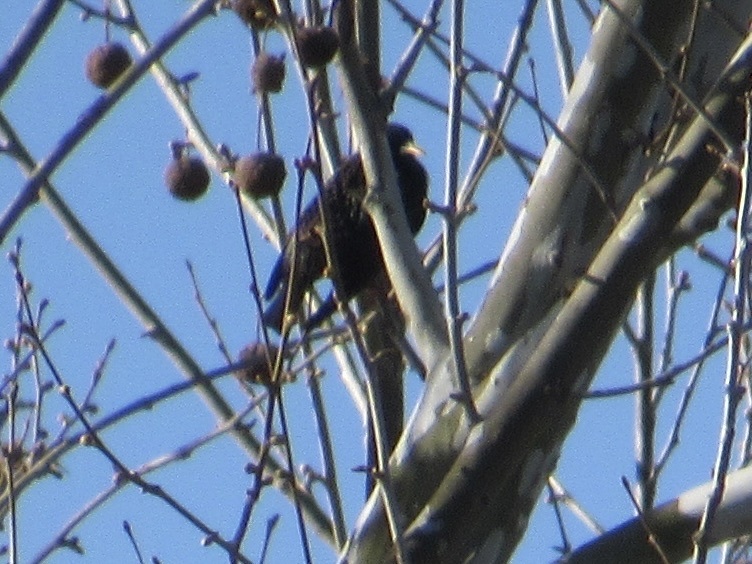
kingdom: Animalia
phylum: Chordata
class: Aves
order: Passeriformes
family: Sturnidae
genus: Sturnus
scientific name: Sturnus vulgaris
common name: Common starling
